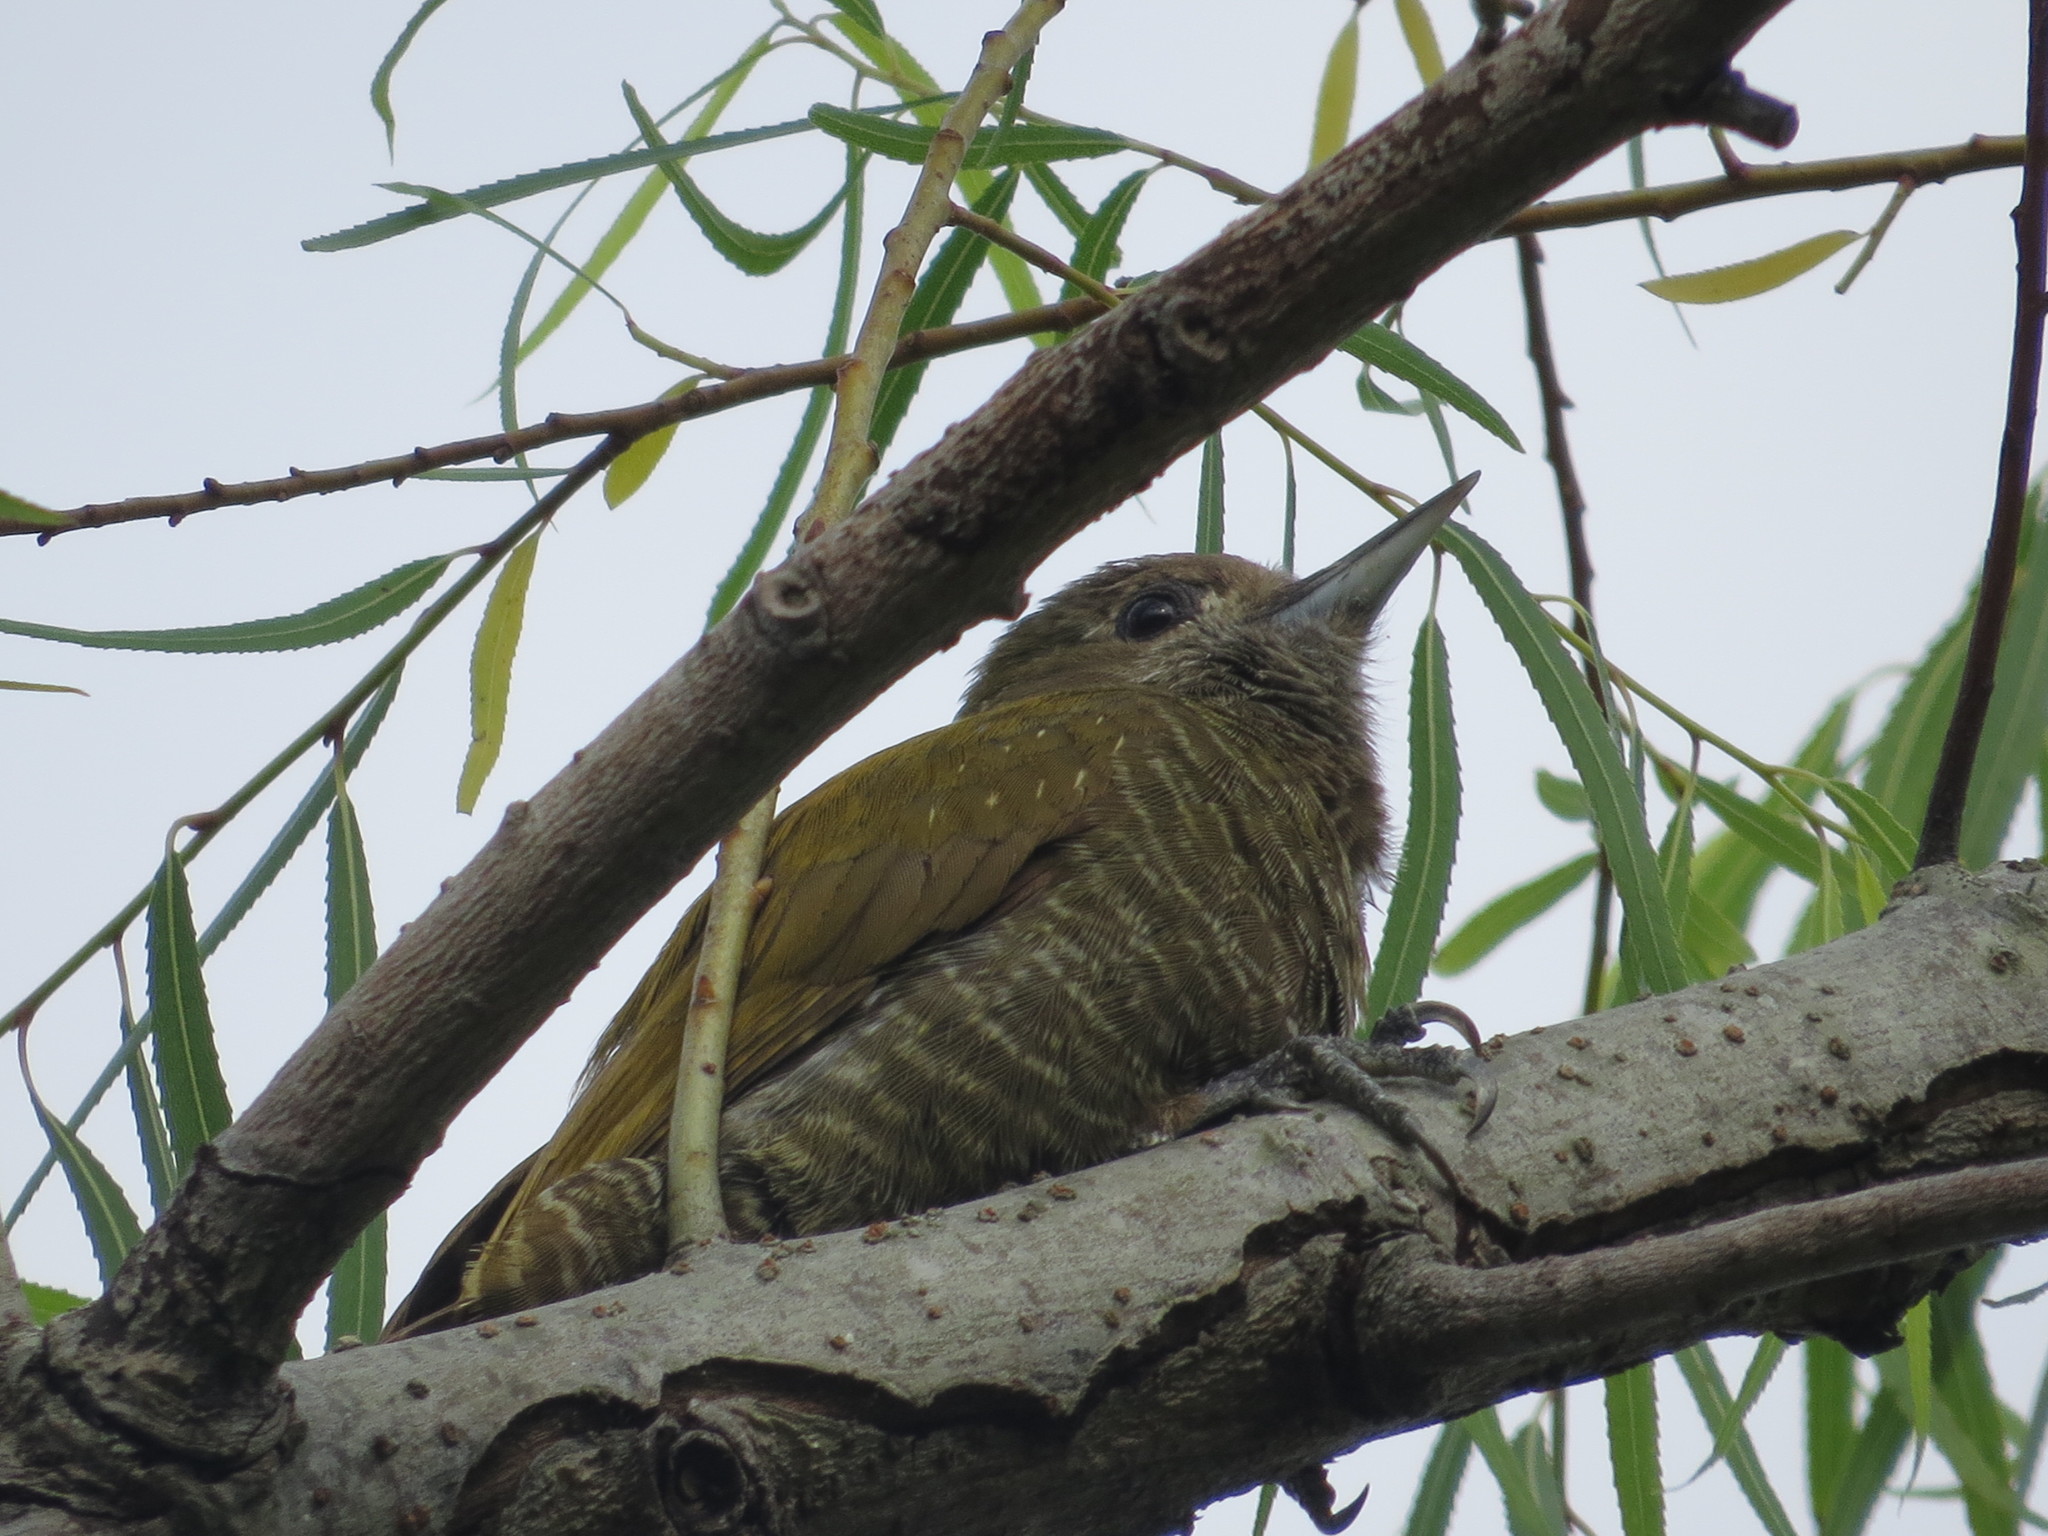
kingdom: Animalia
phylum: Chordata
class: Aves
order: Piciformes
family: Picidae
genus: Veniliornis
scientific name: Veniliornis passerinus
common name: Little woodpecker
